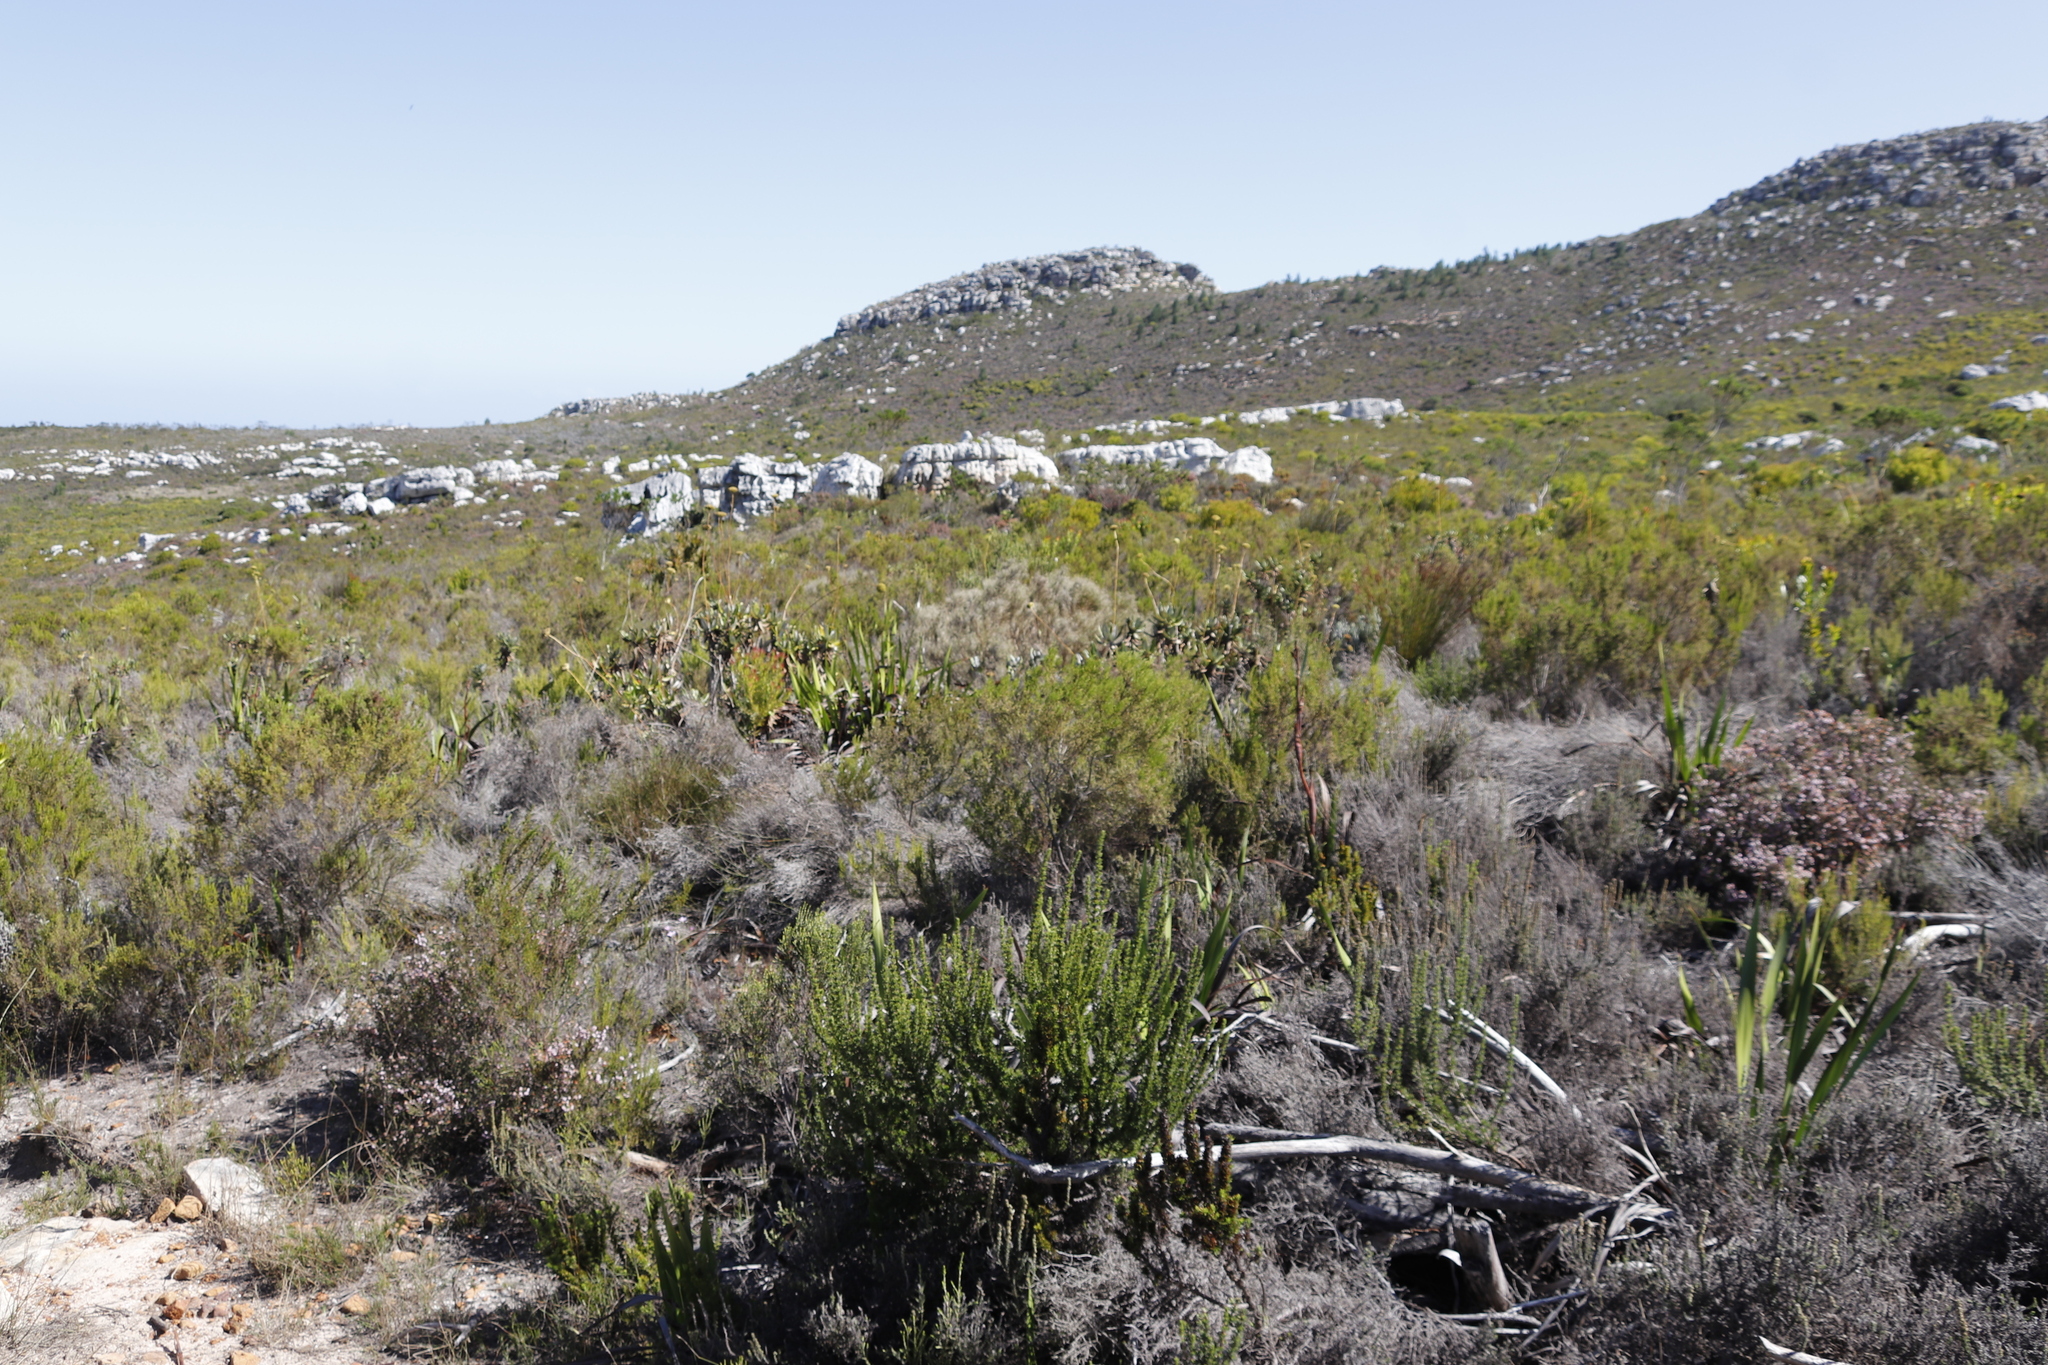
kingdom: Plantae
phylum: Tracheophyta
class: Magnoliopsida
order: Apiales
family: Apiaceae
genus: Hermas
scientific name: Hermas villosa
